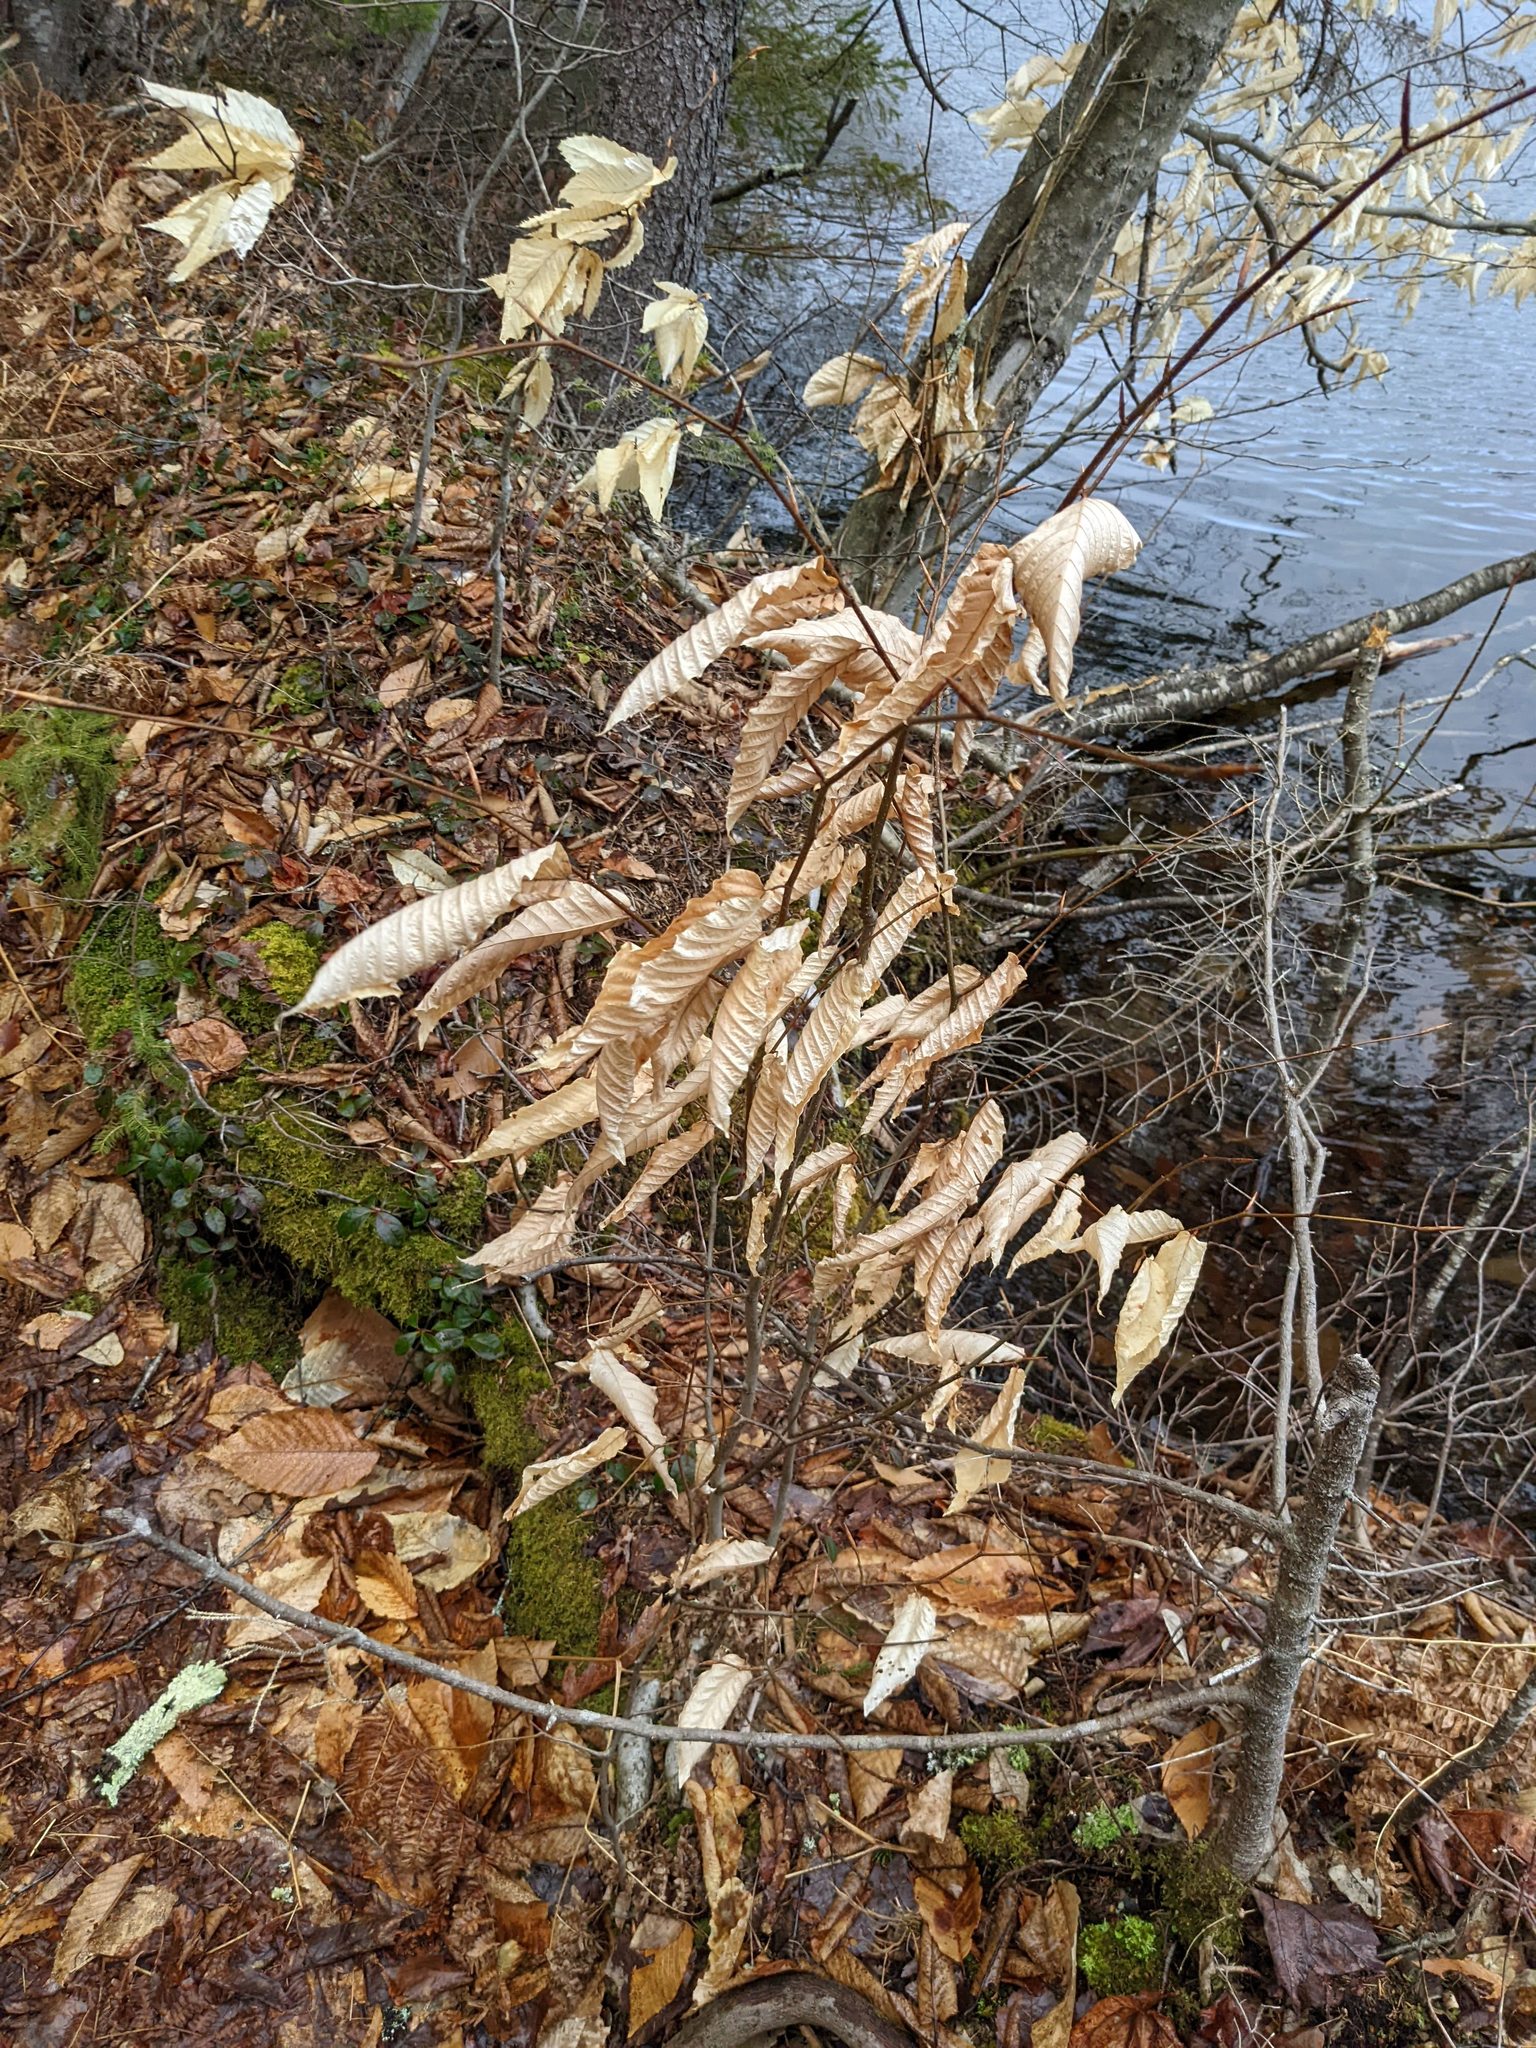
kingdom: Plantae
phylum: Tracheophyta
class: Magnoliopsida
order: Fagales
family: Fagaceae
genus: Fagus
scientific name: Fagus grandifolia
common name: American beech
